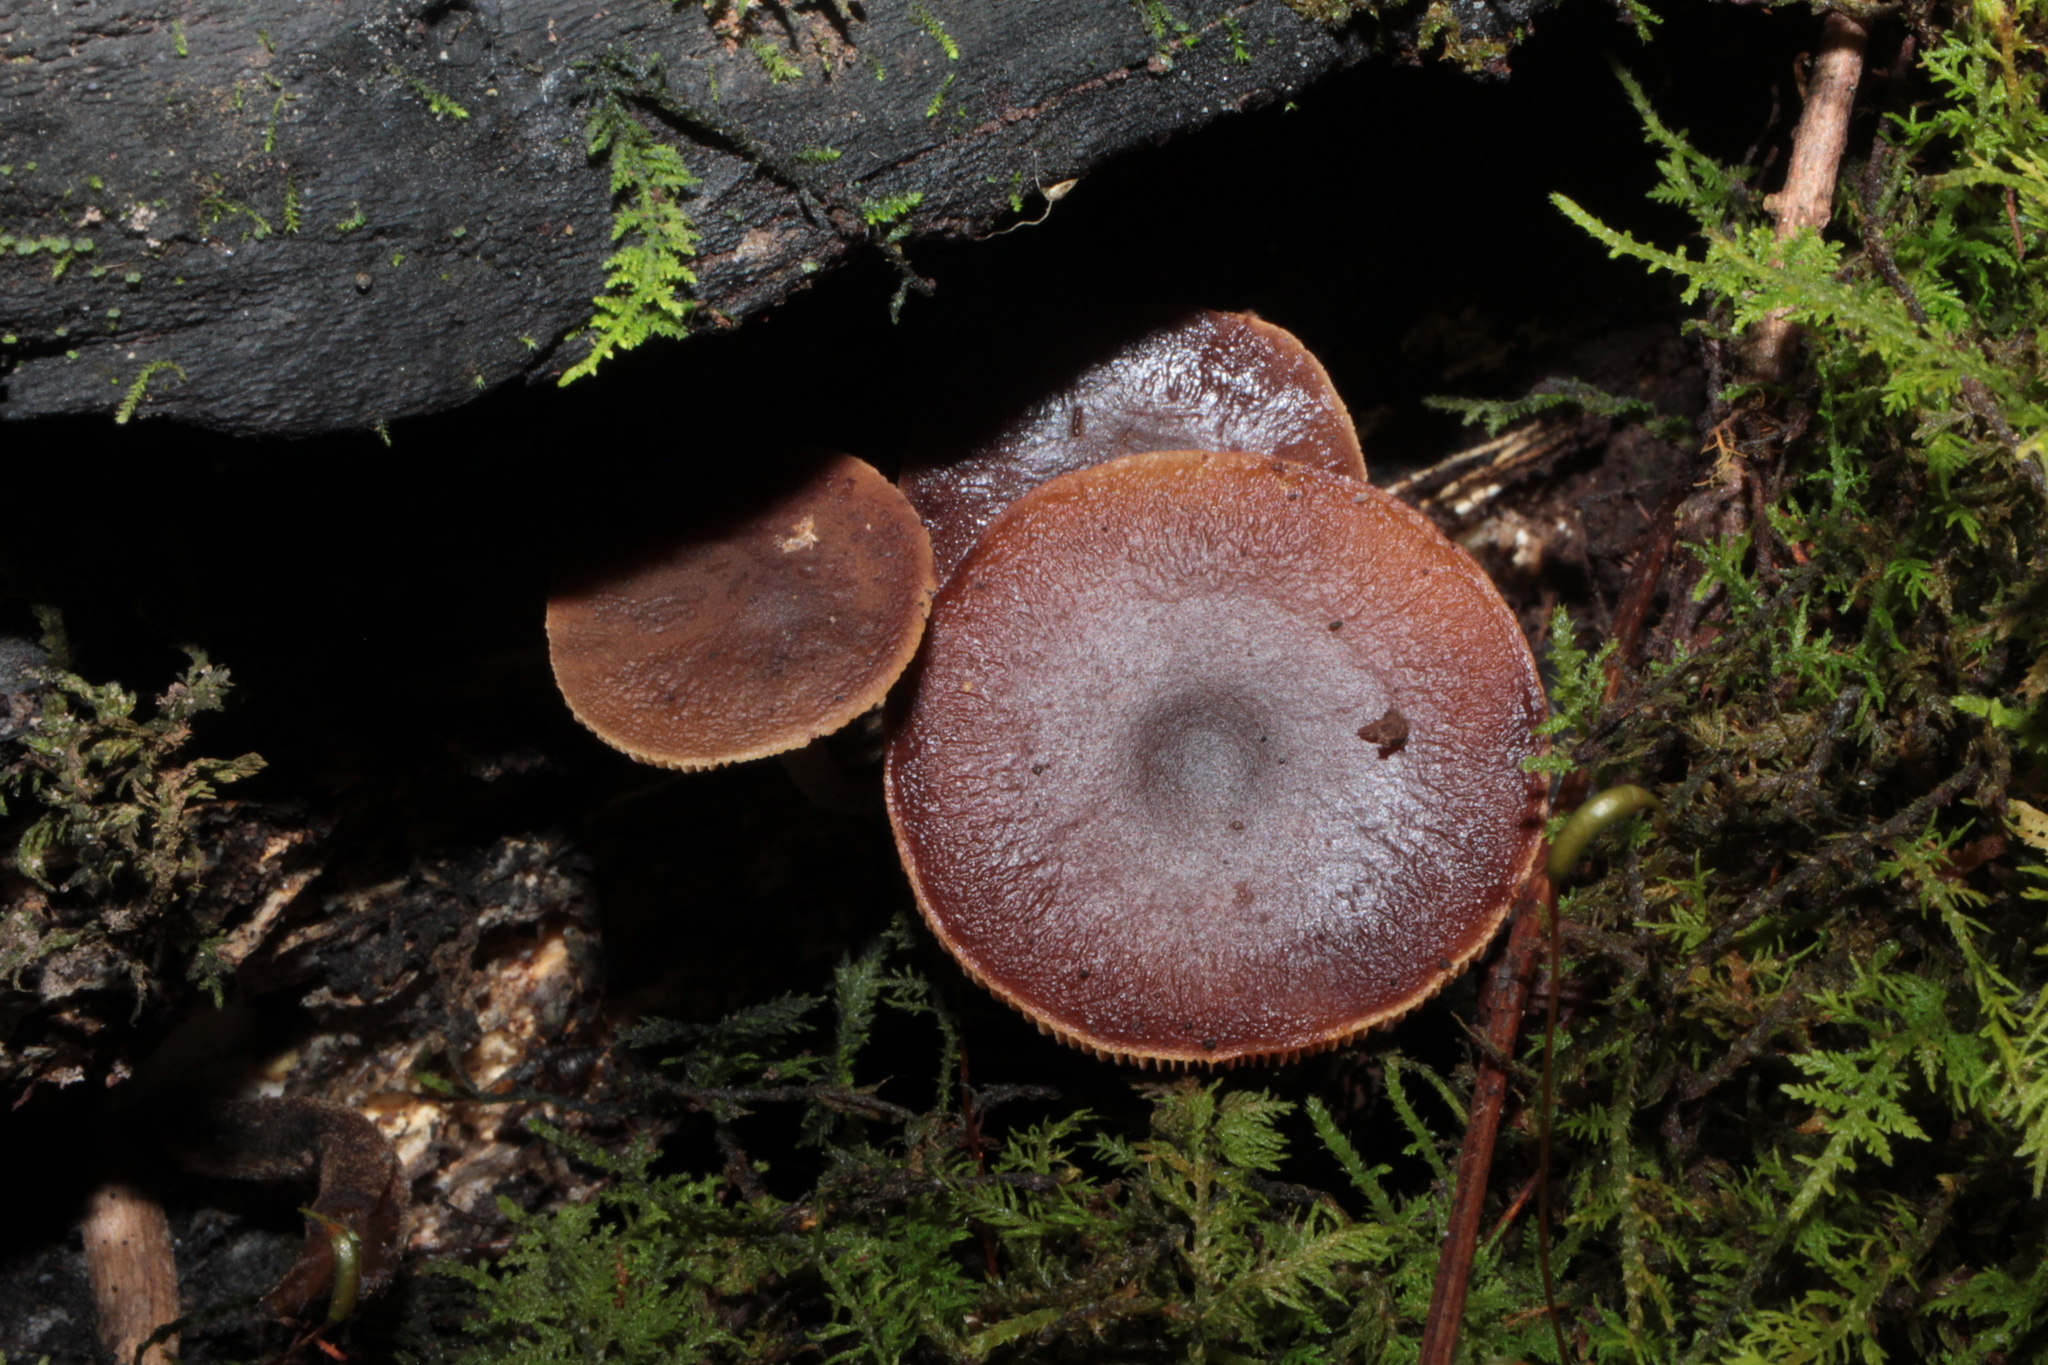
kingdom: Fungi
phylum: Basidiomycota
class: Agaricomycetes
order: Agaricales
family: Strophariaceae
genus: Agrocybe
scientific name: Agrocybe firma
